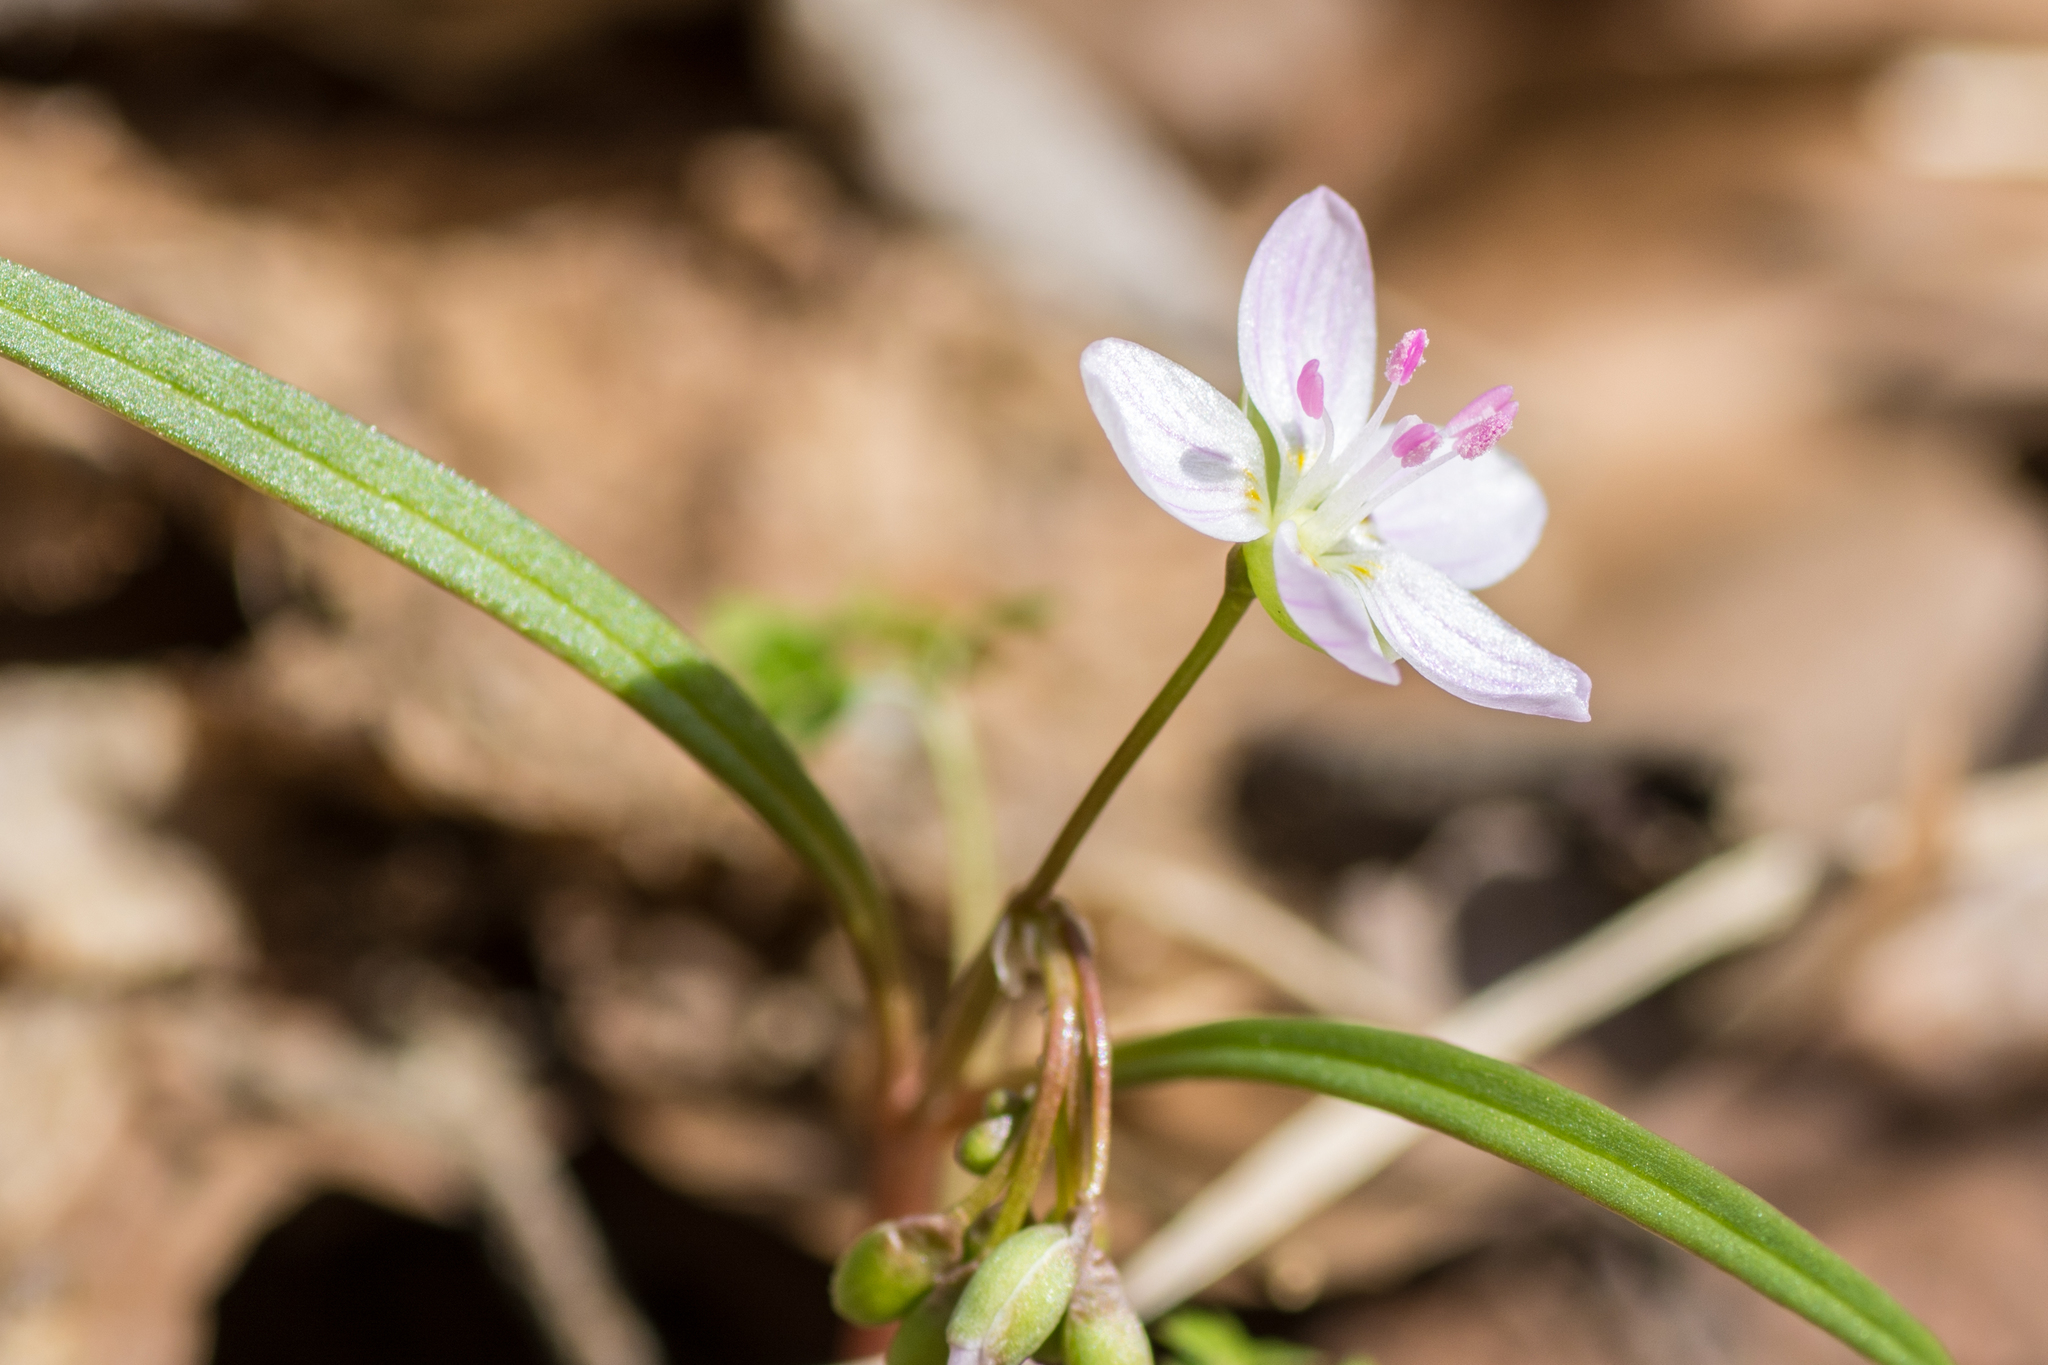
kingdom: Plantae
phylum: Tracheophyta
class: Magnoliopsida
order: Caryophyllales
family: Montiaceae
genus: Claytonia
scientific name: Claytonia virginica
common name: Virginia springbeauty
